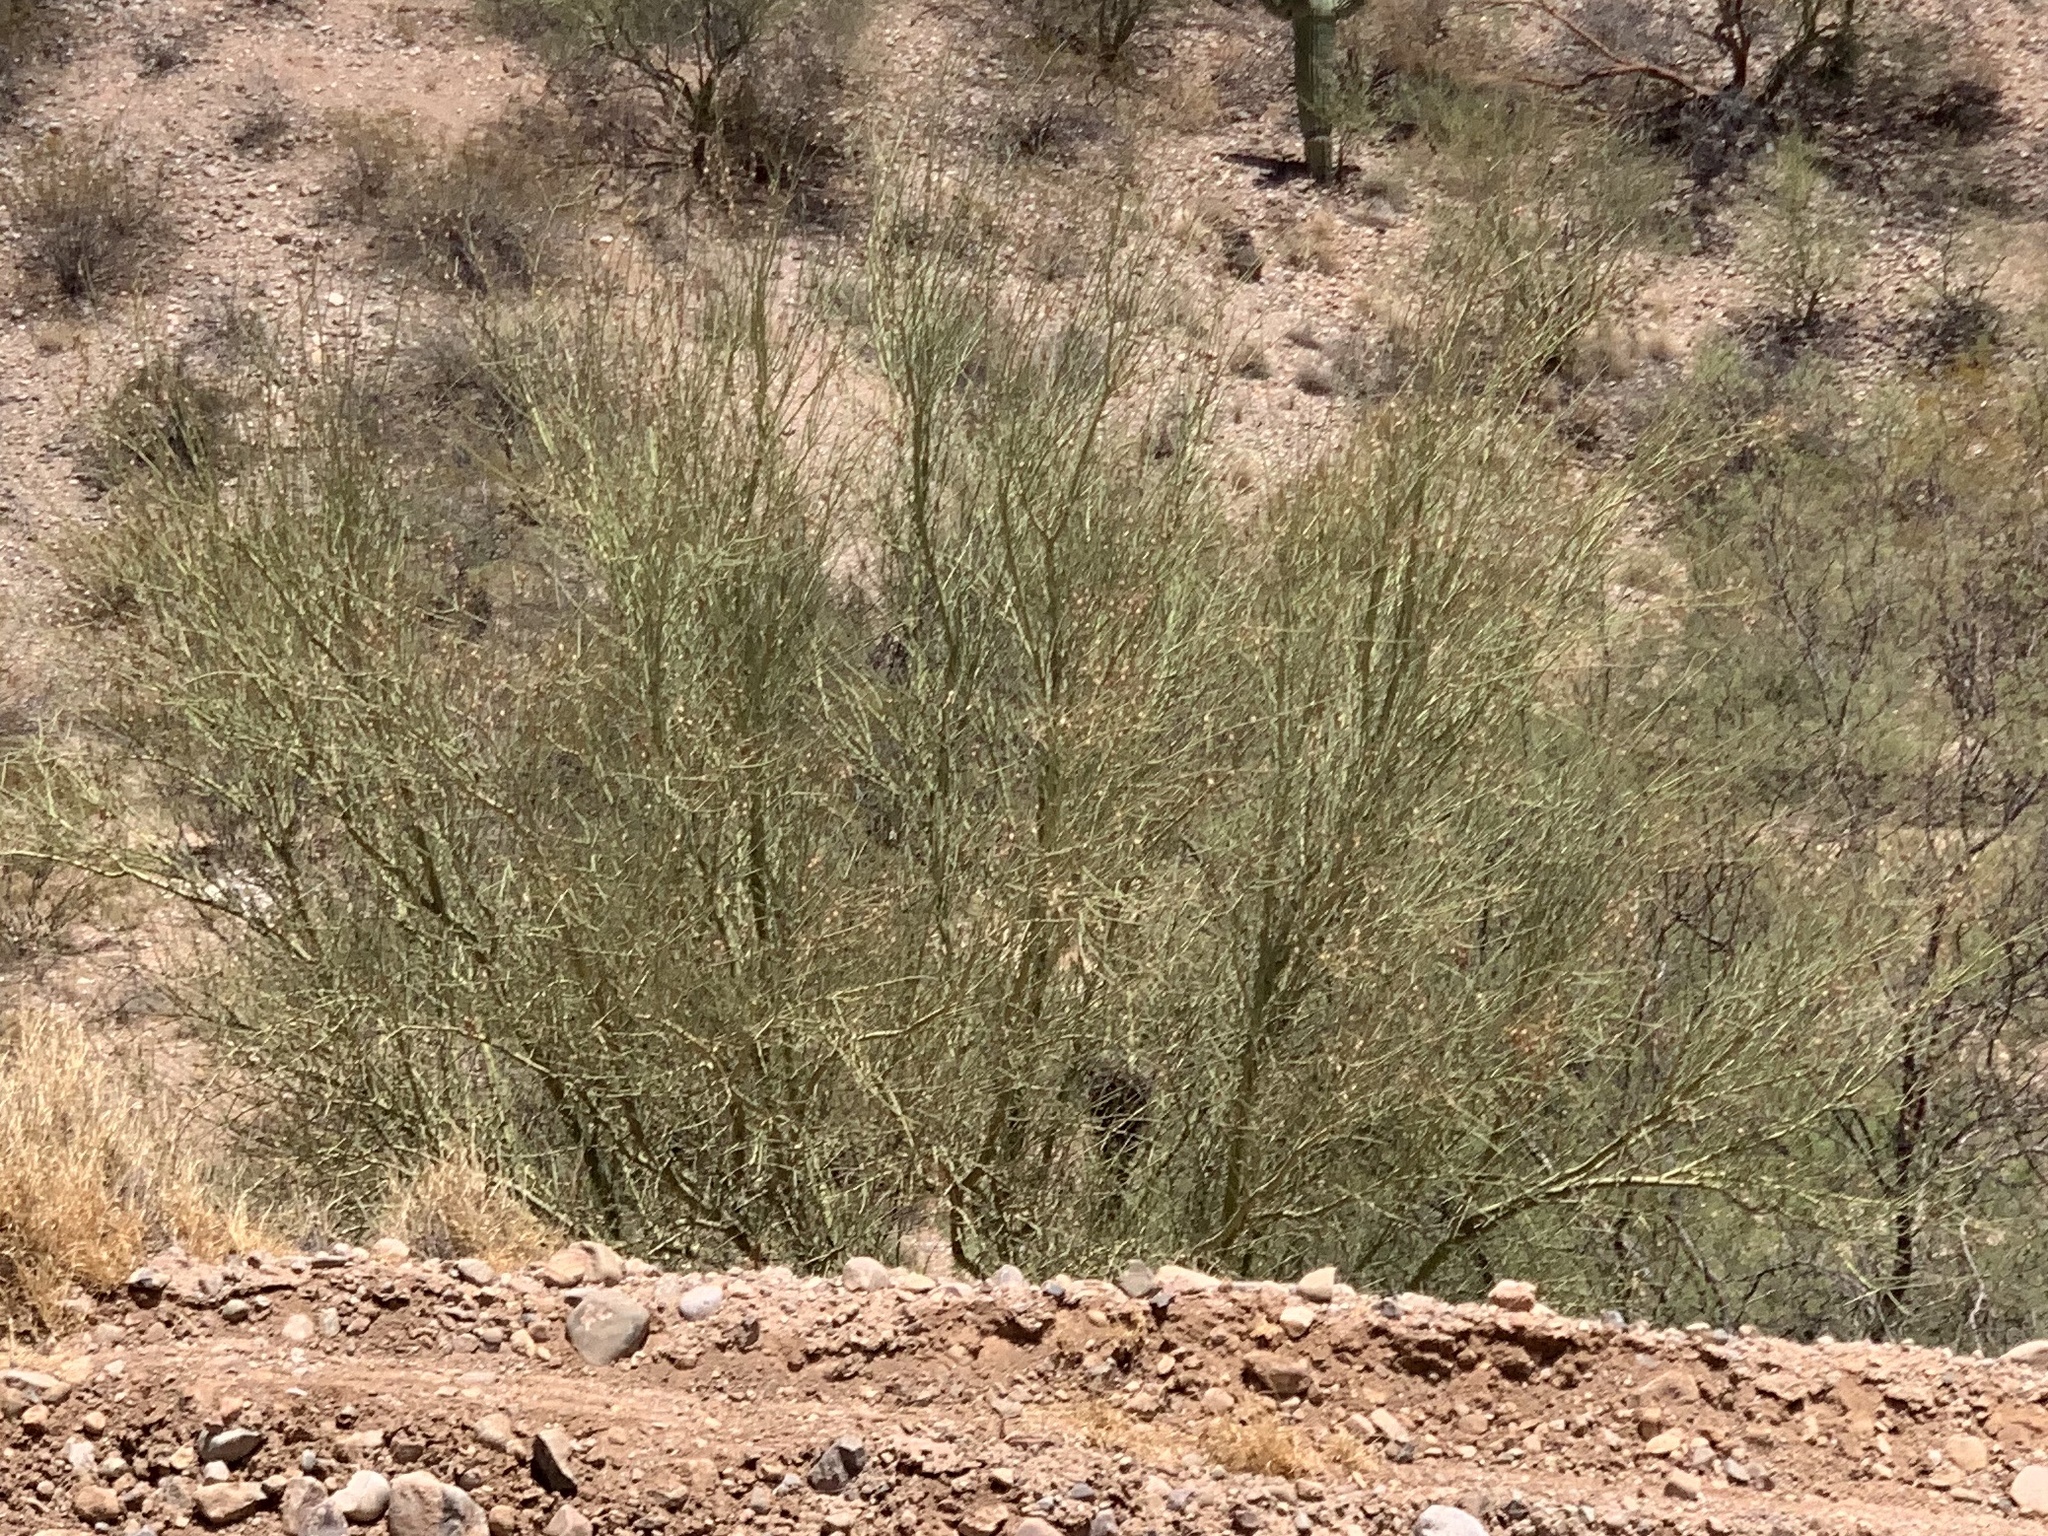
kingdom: Plantae
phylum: Tracheophyta
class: Magnoliopsida
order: Fabales
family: Fabaceae
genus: Parkinsonia
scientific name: Parkinsonia microphylla
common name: Yellow paloverde
